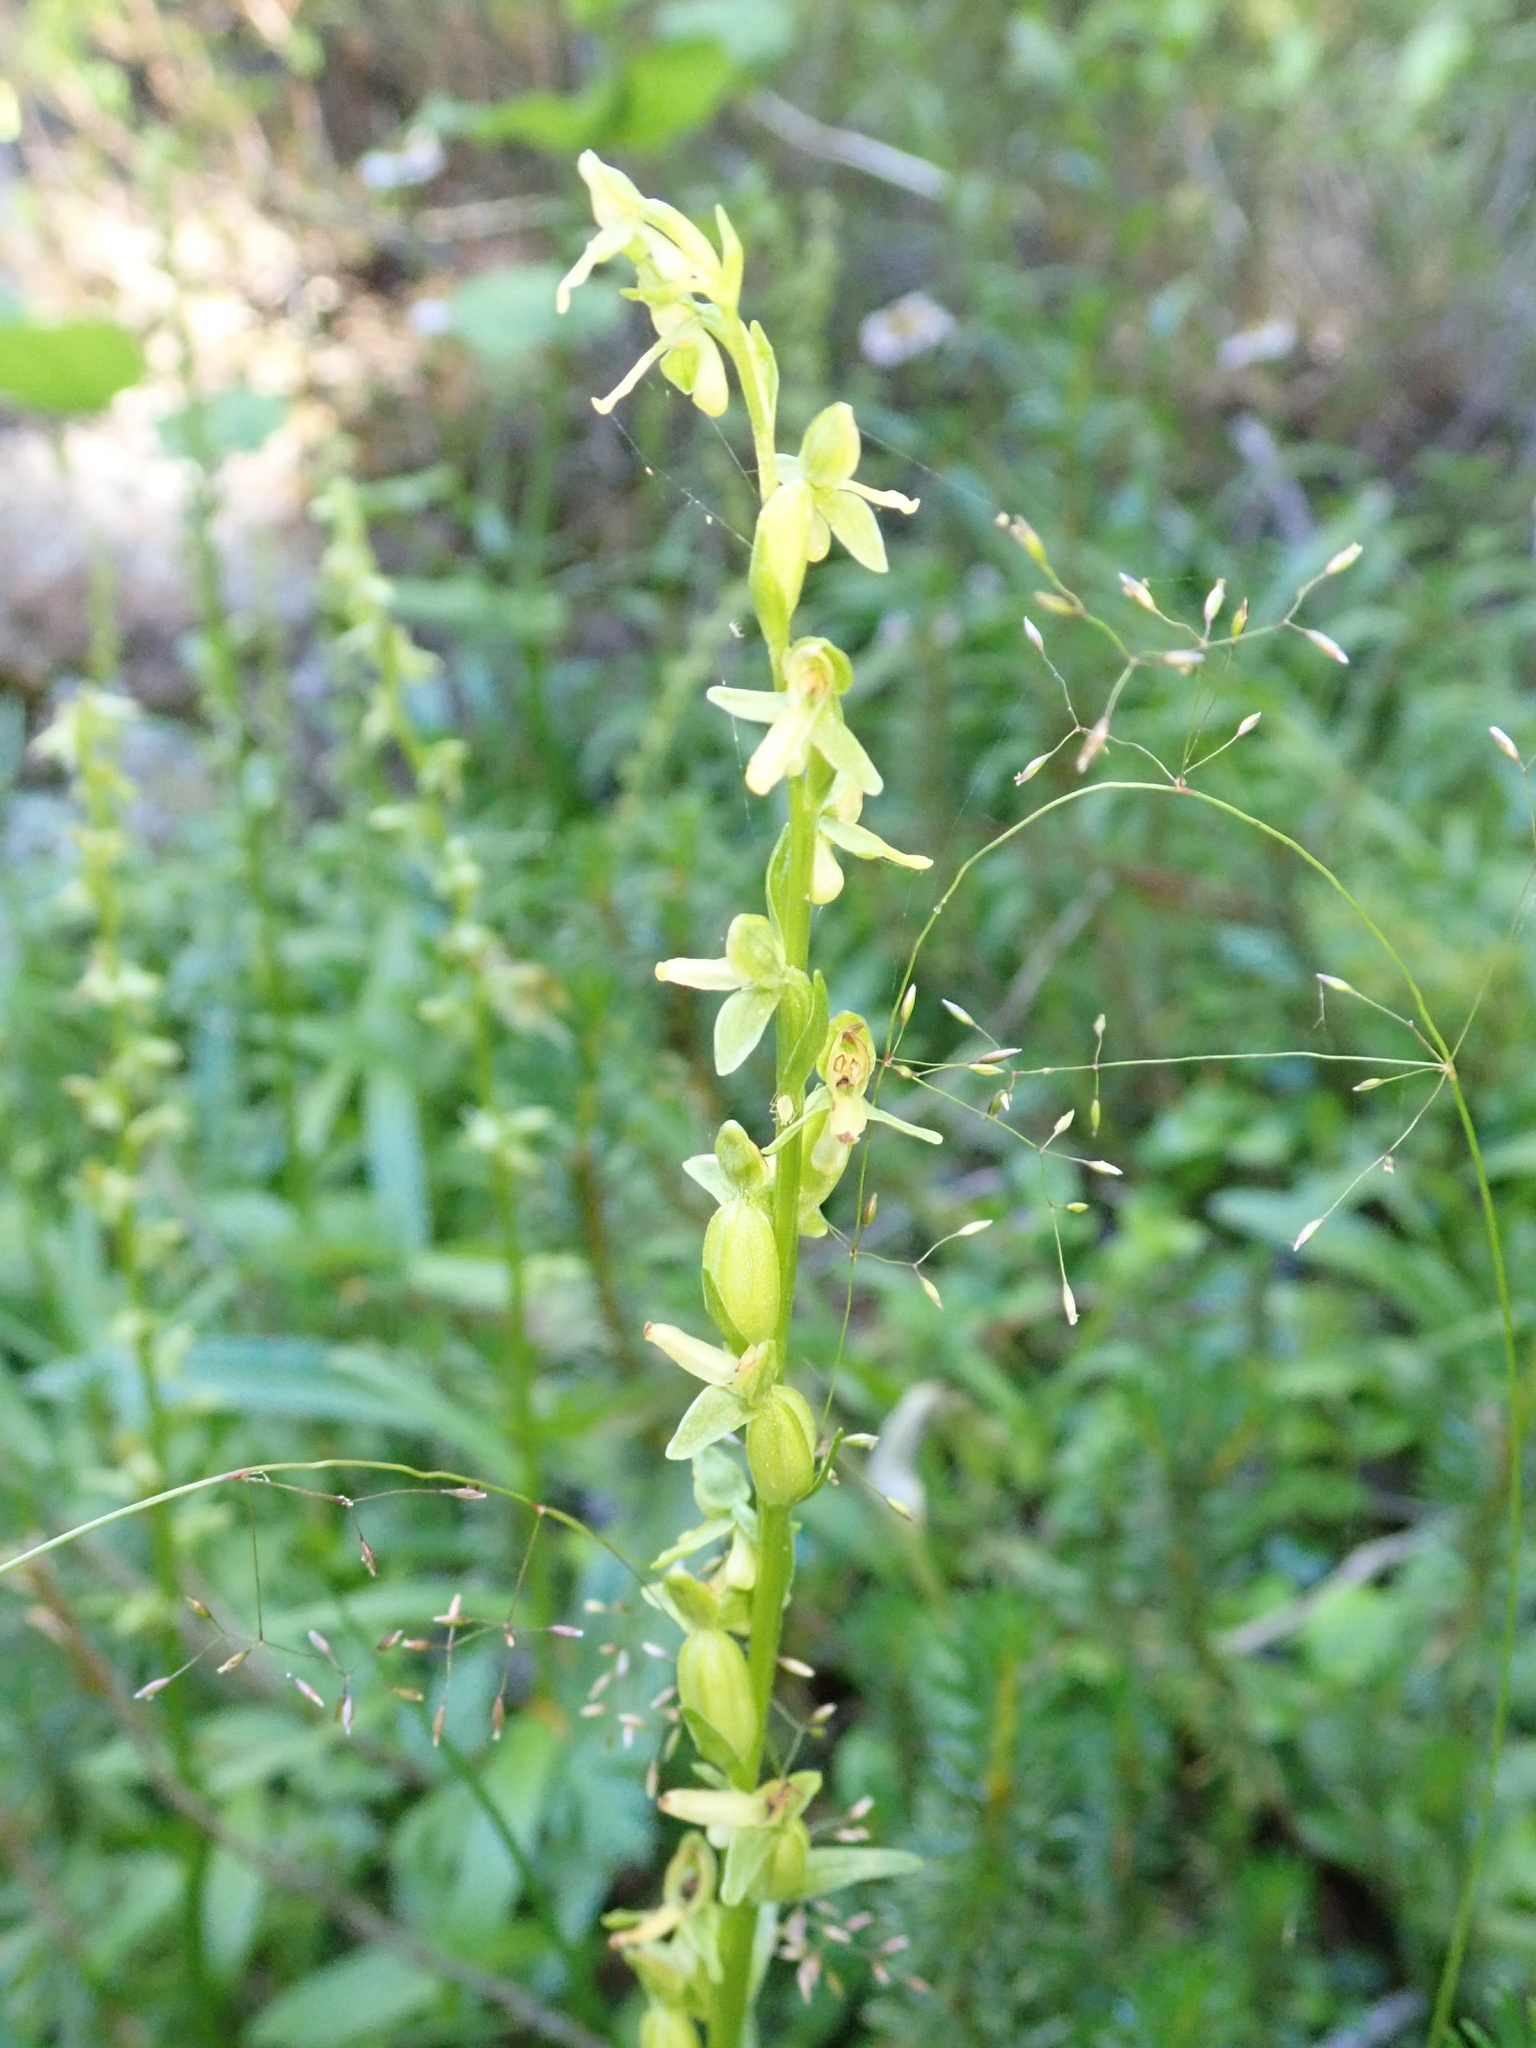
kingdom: Plantae
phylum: Tracheophyta
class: Liliopsida
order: Asparagales
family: Orchidaceae
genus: Platanthera
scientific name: Platanthera stricta
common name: Slender bog orchid
